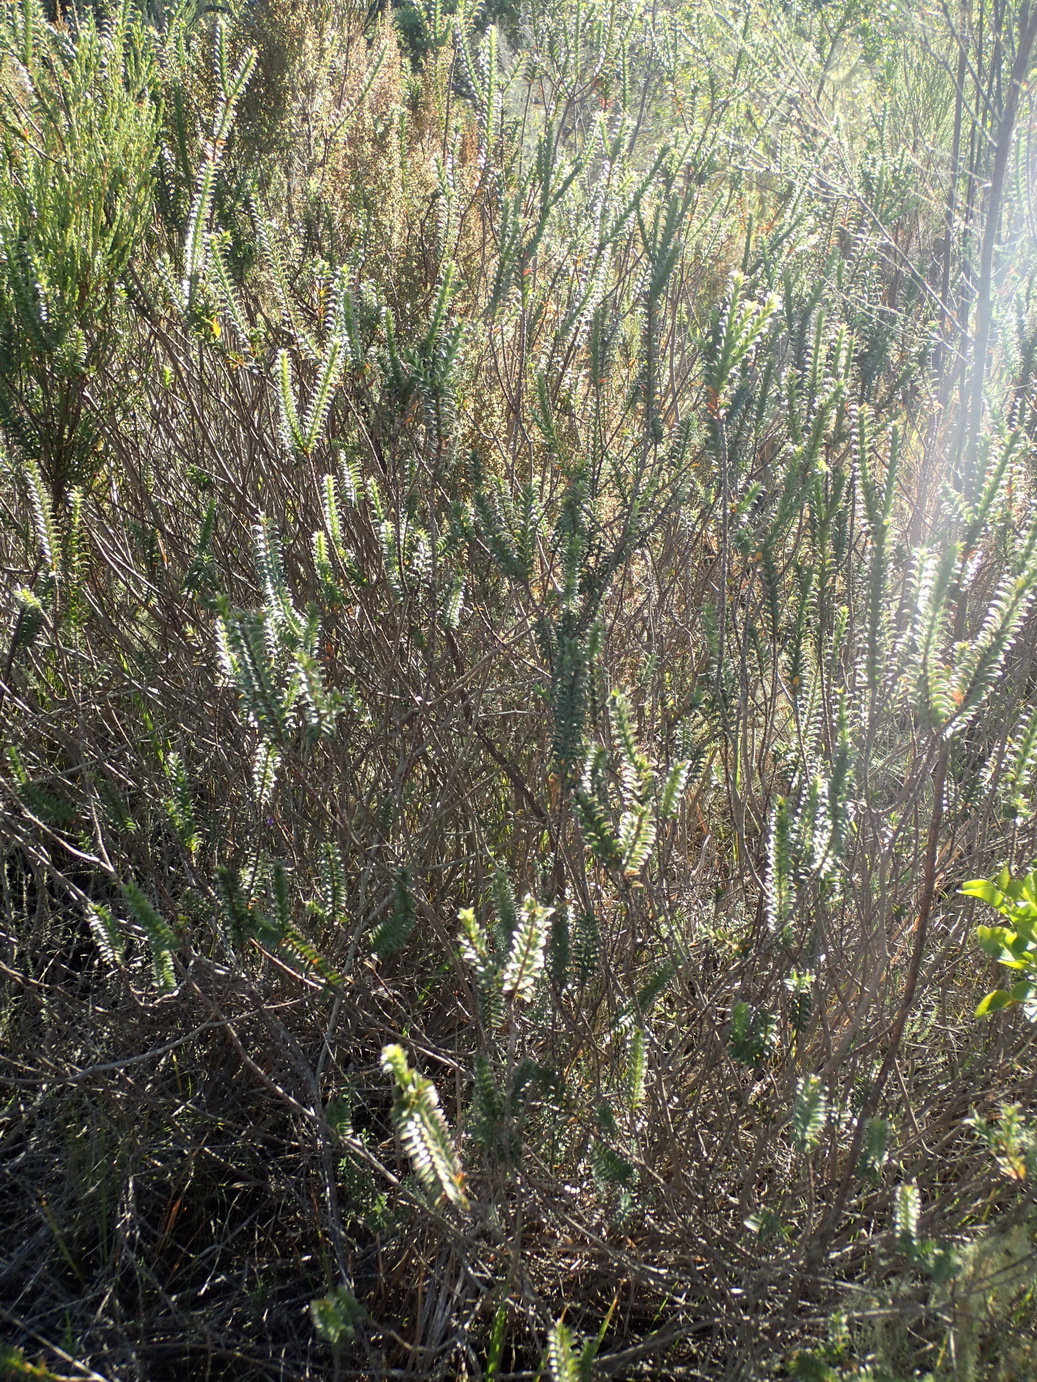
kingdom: Plantae
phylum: Tracheophyta
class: Magnoliopsida
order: Malvales
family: Thymelaeaceae
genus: Struthiola
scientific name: Struthiola argentea
